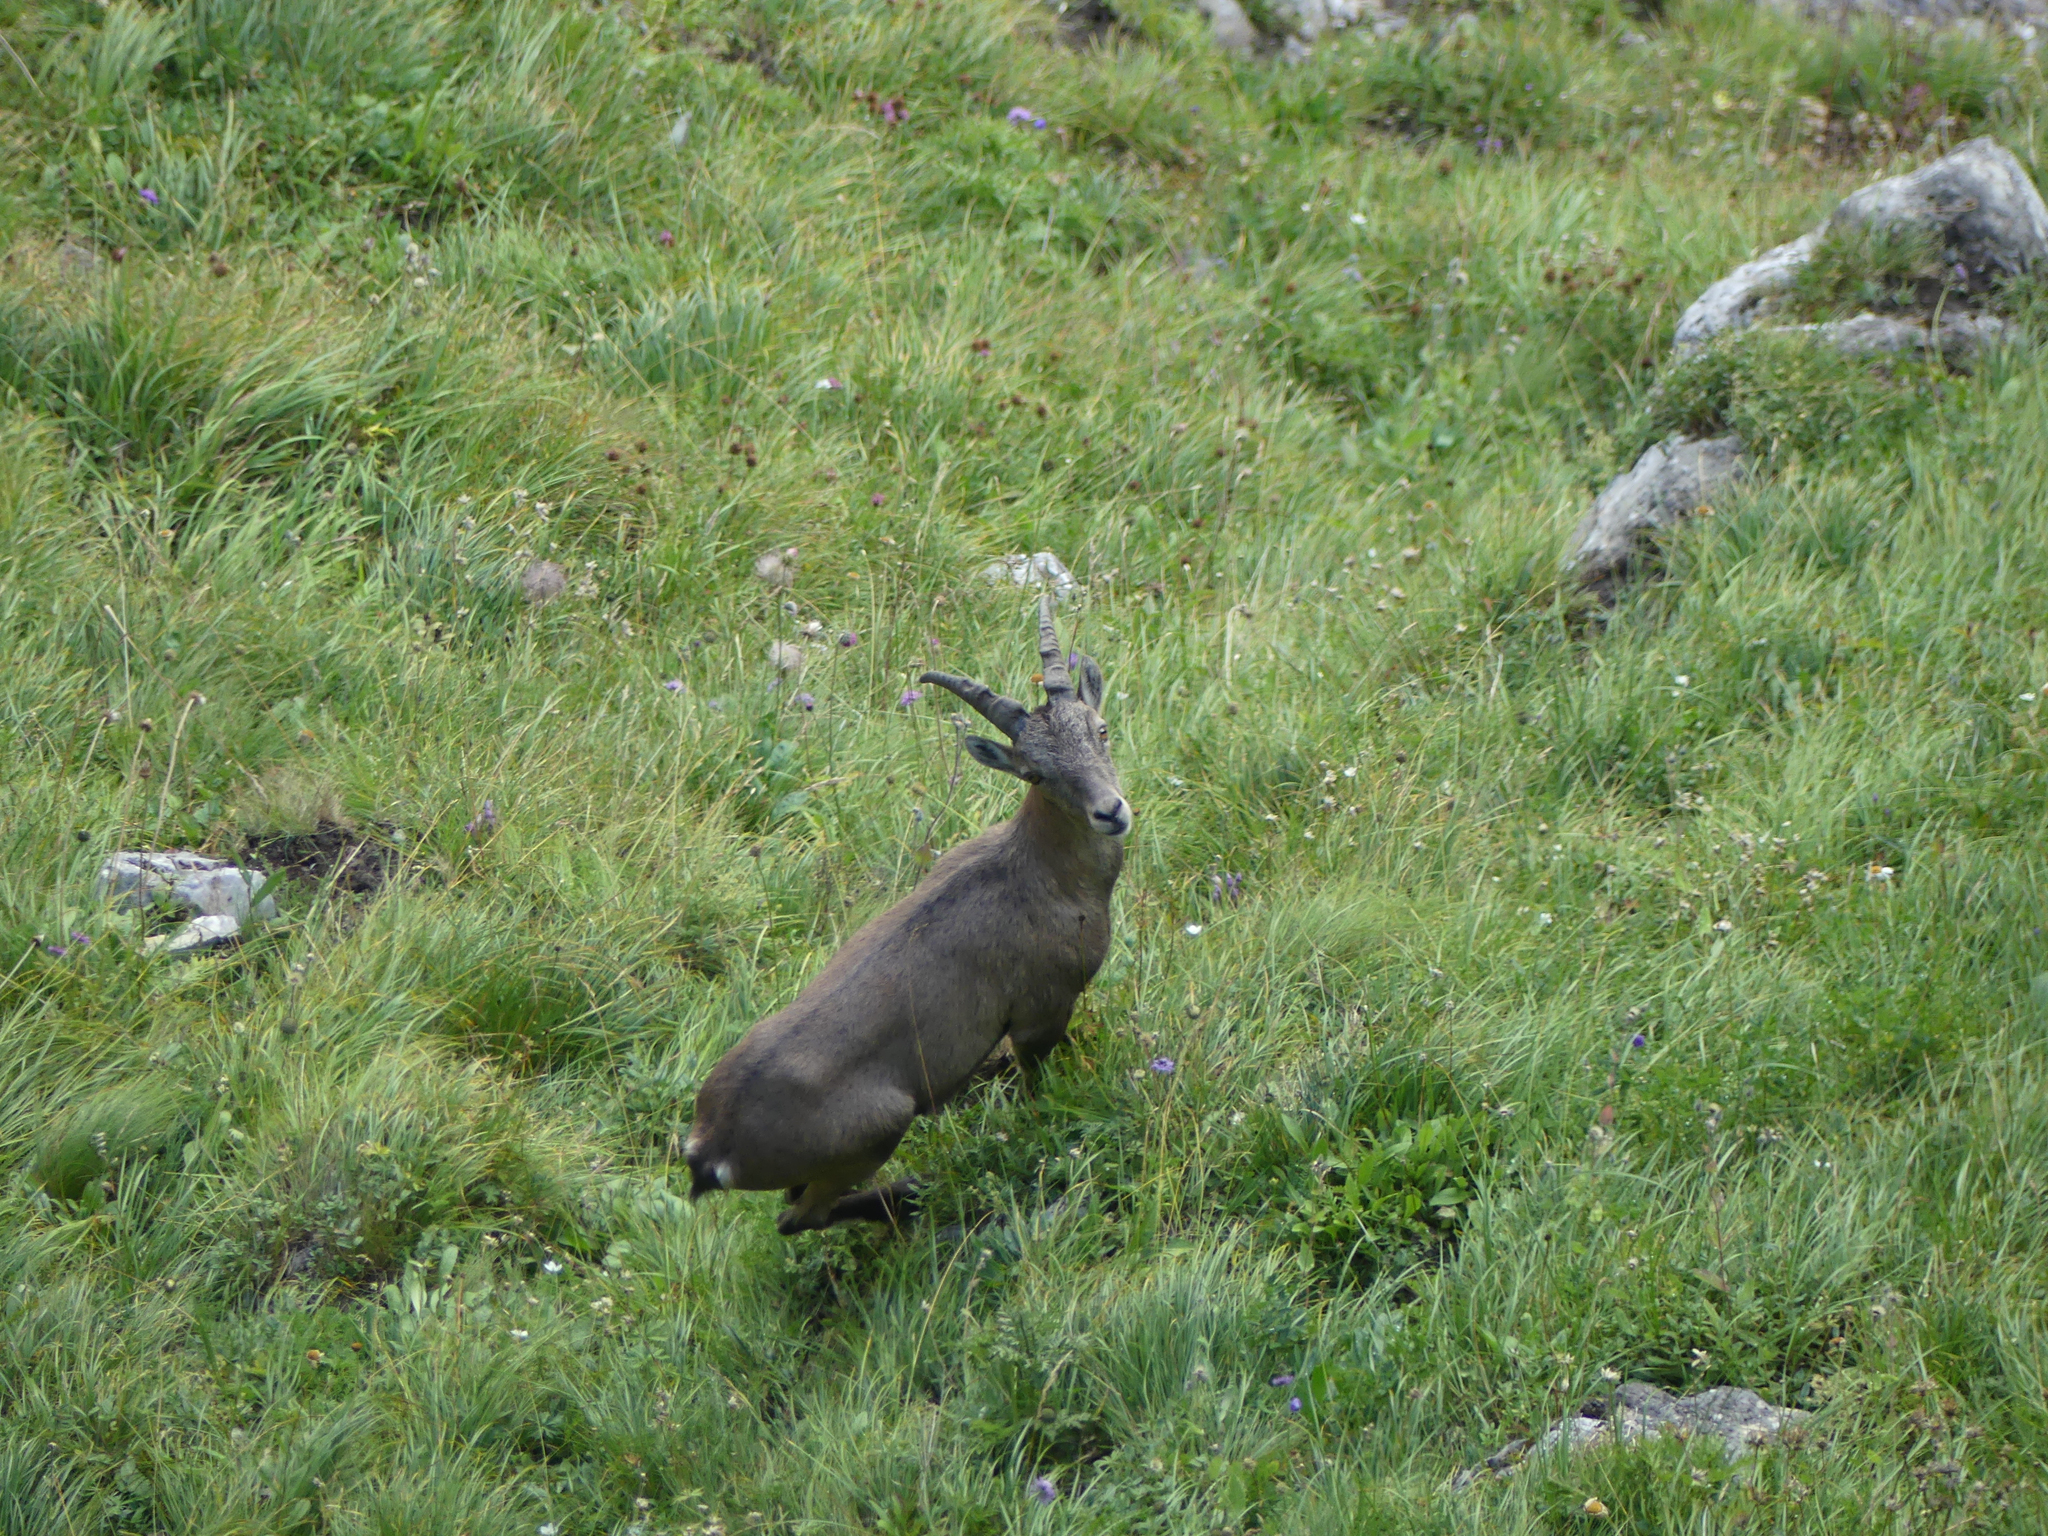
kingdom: Animalia
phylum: Chordata
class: Mammalia
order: Artiodactyla
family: Bovidae
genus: Capra
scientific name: Capra ibex
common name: Alpine ibex
